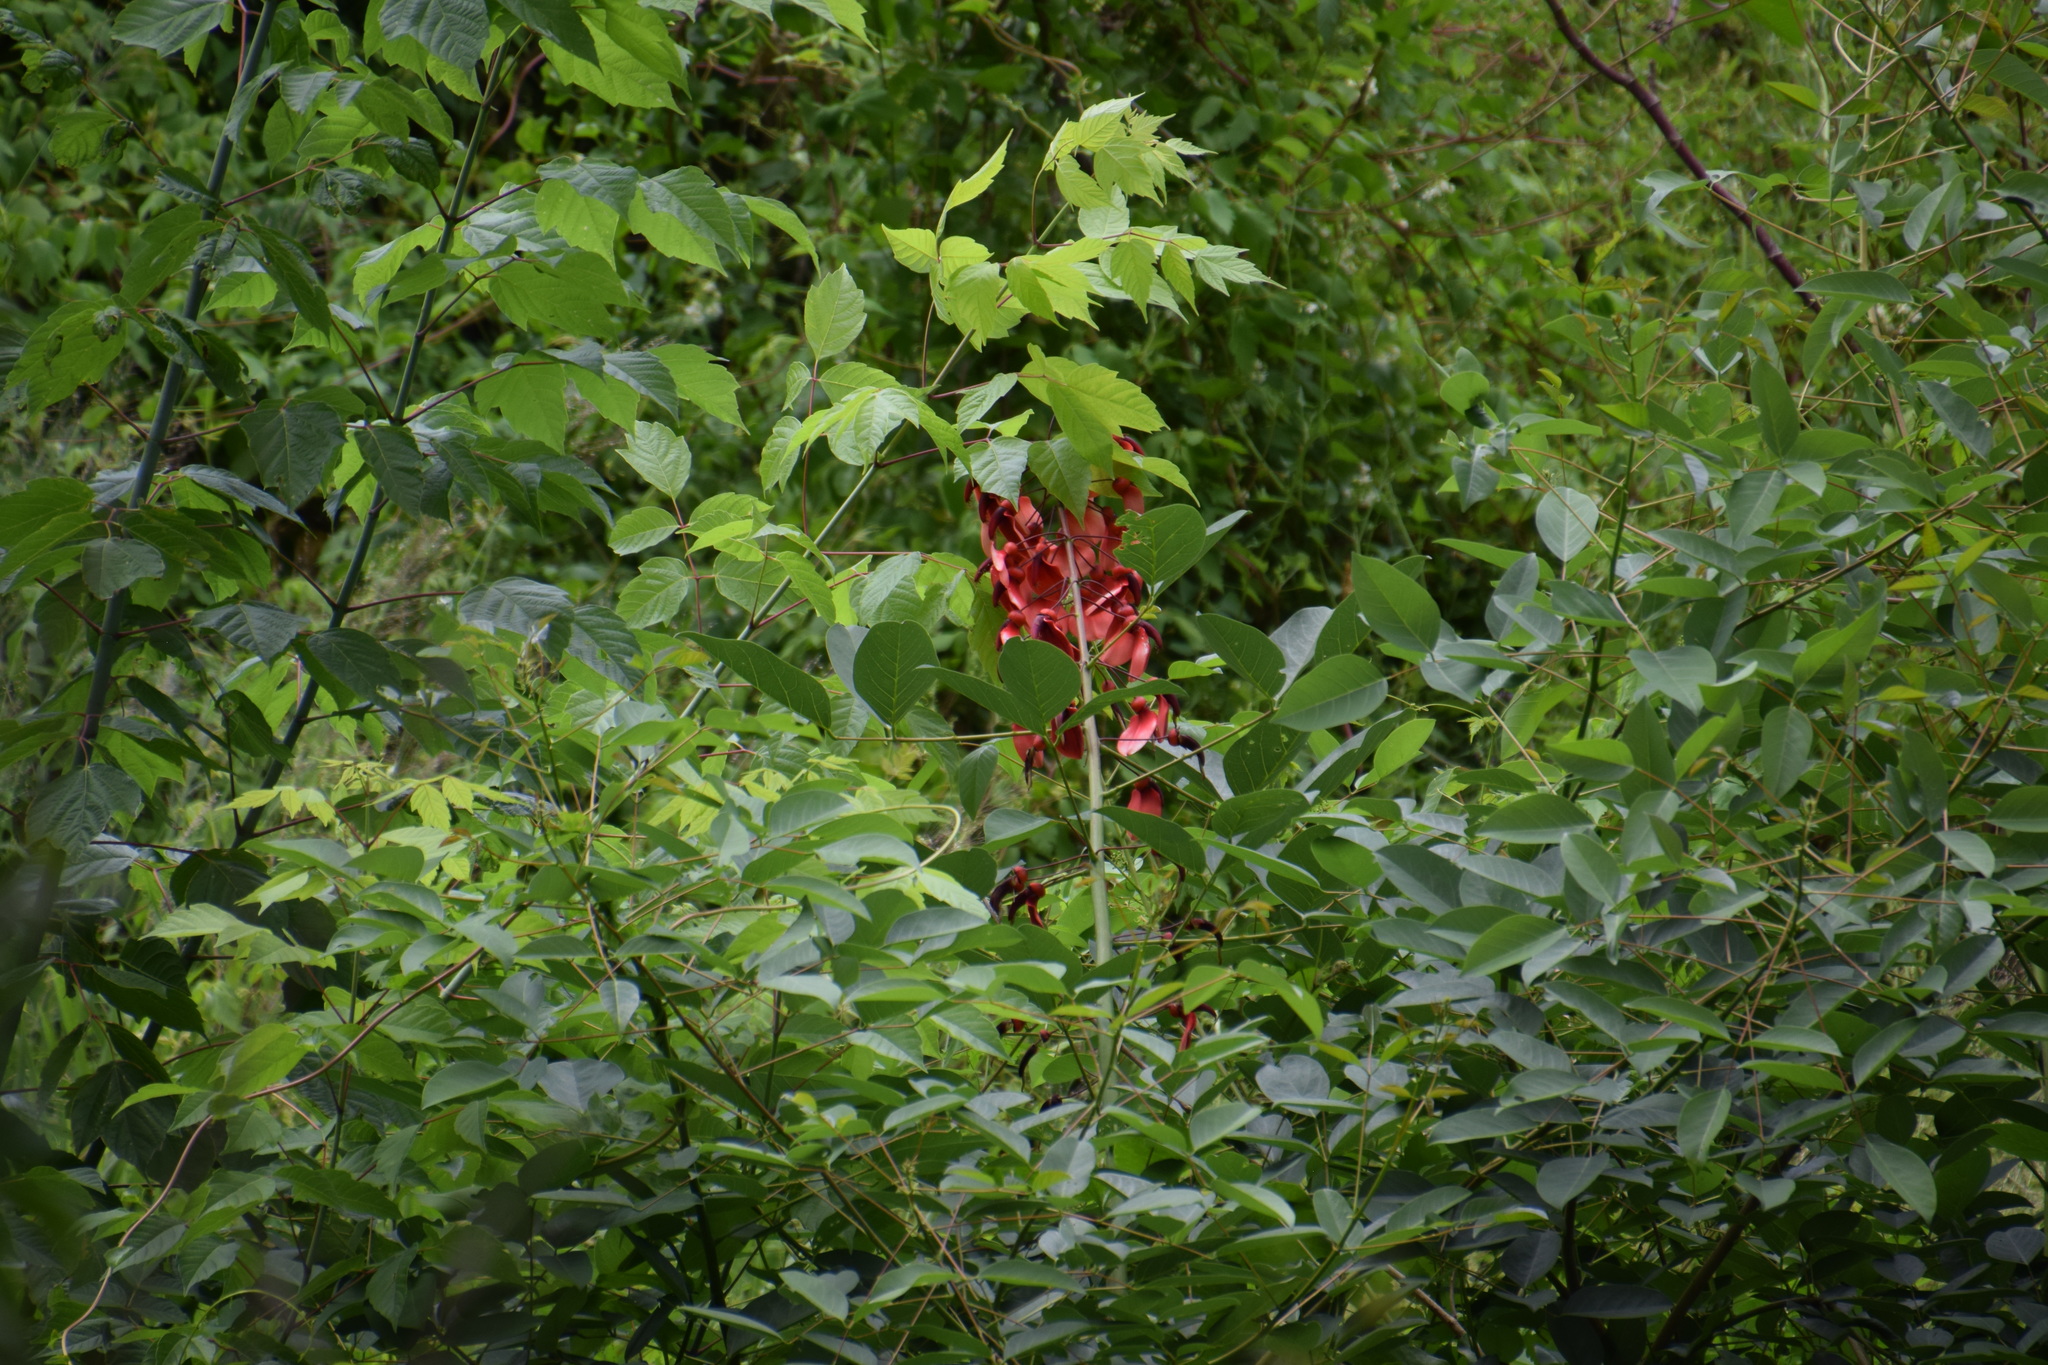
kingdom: Plantae
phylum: Tracheophyta
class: Magnoliopsida
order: Fabales
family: Fabaceae
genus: Erythrina
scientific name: Erythrina crista-galli
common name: Cockspur coral tree
